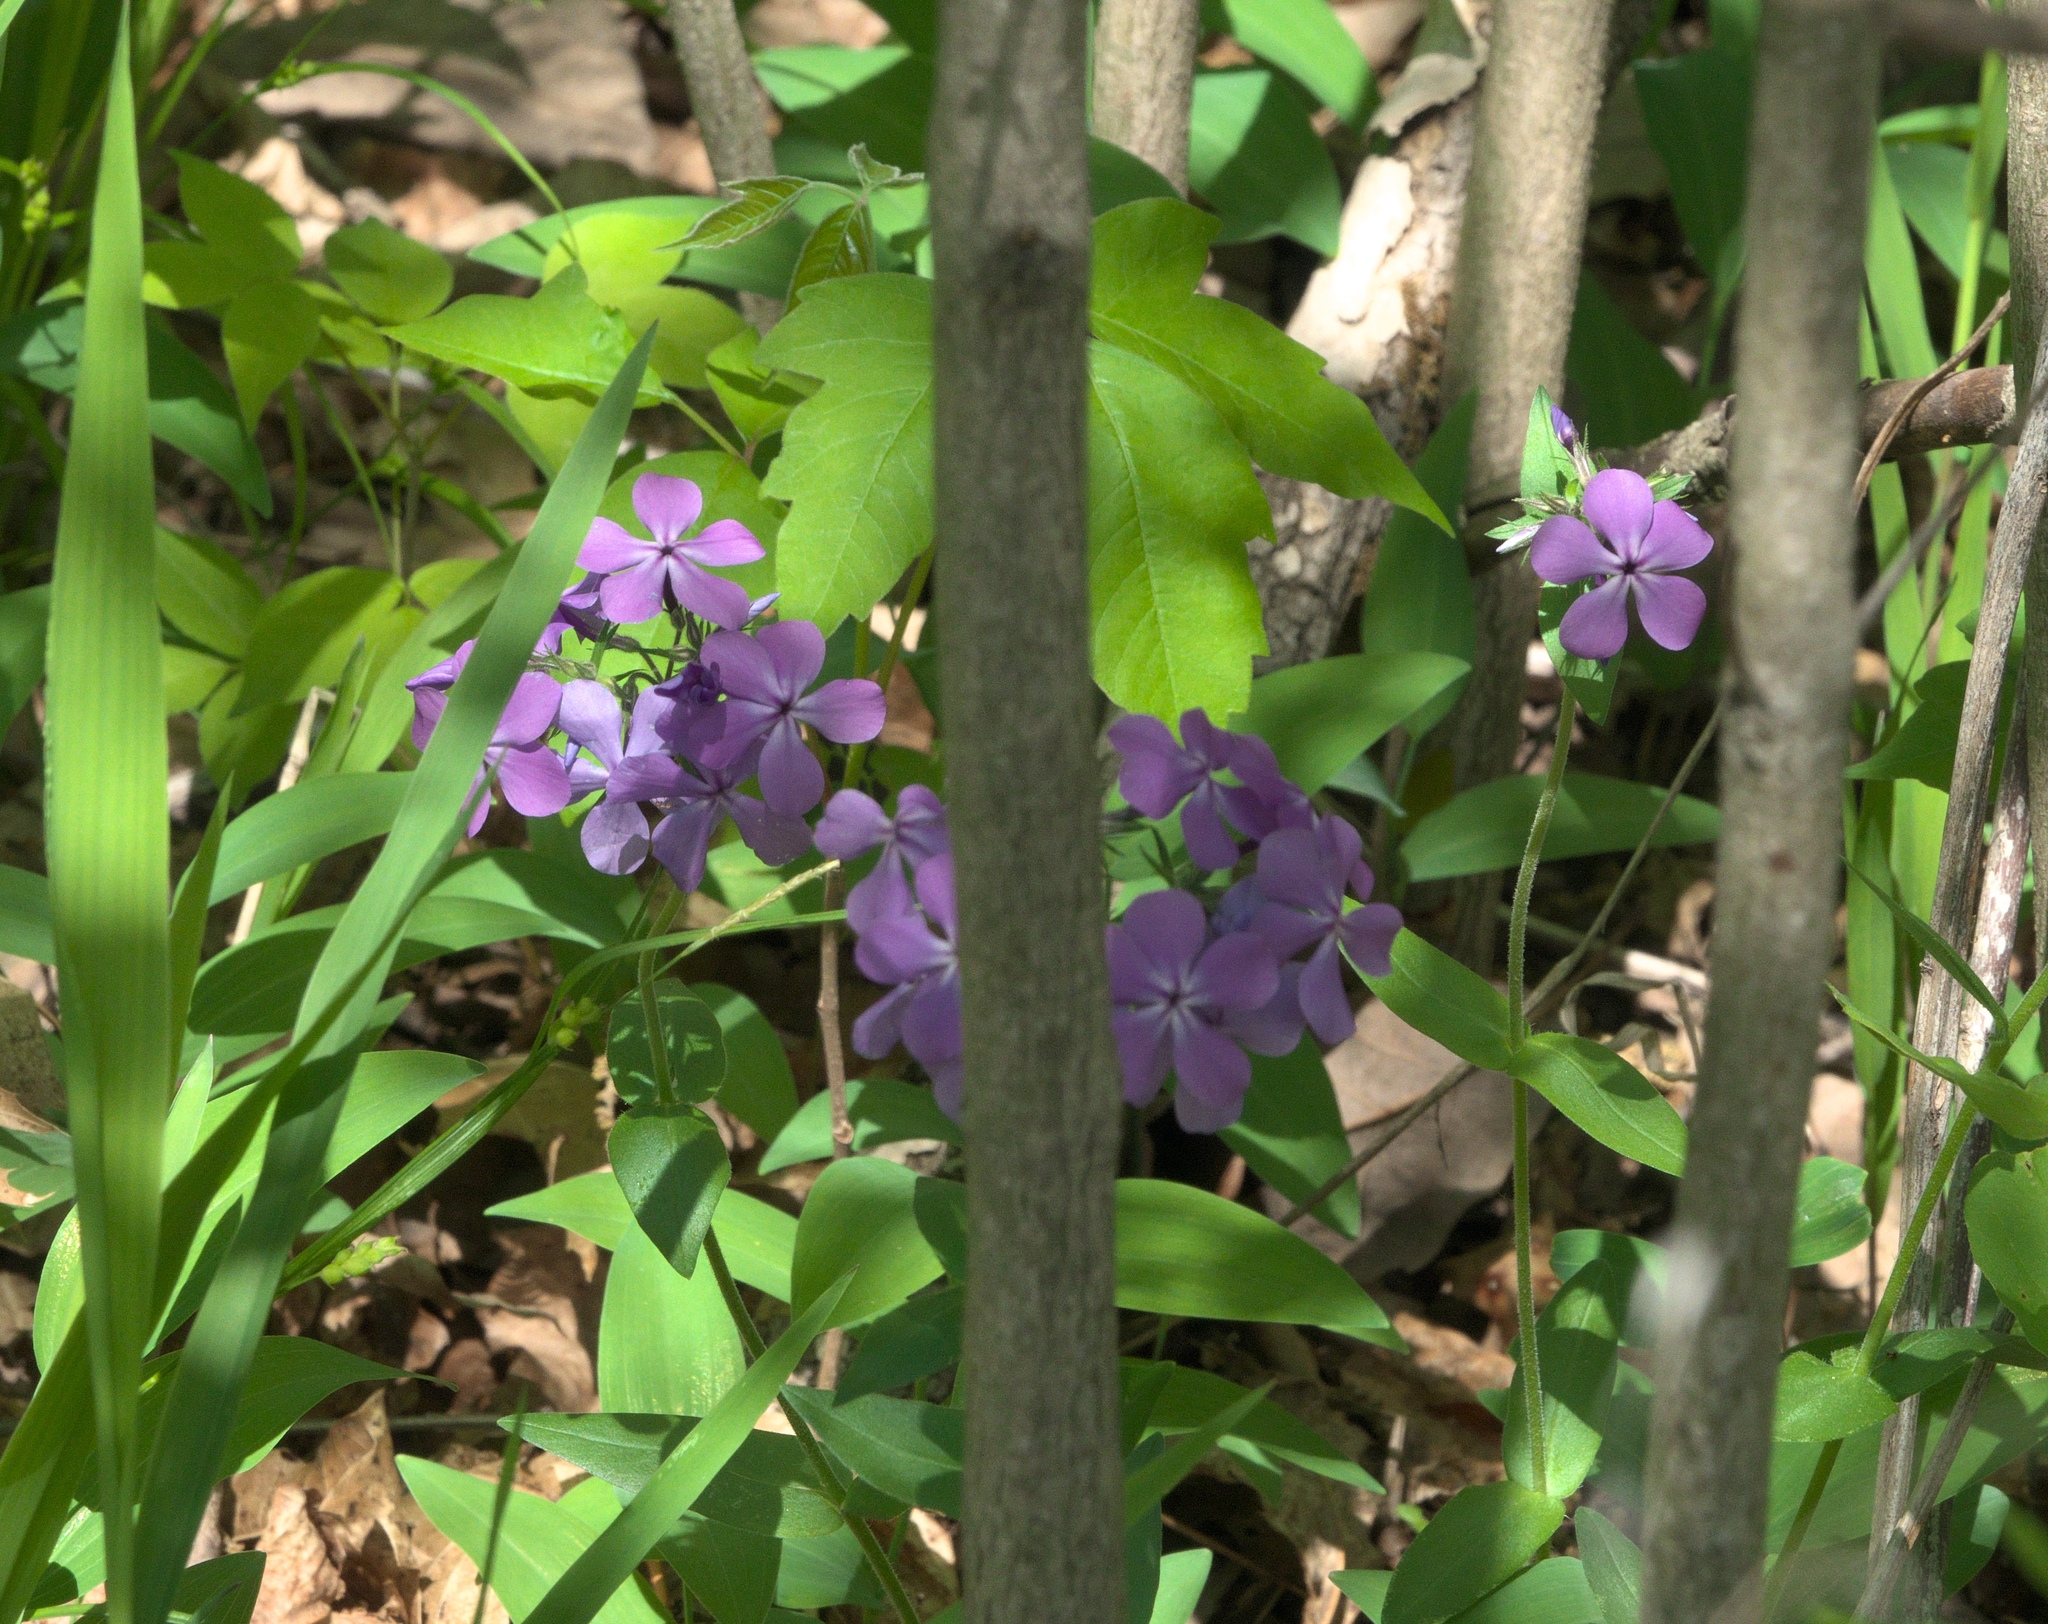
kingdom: Plantae
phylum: Tracheophyta
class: Magnoliopsida
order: Ericales
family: Polemoniaceae
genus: Phlox
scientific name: Phlox divaricata
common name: Blue phlox
